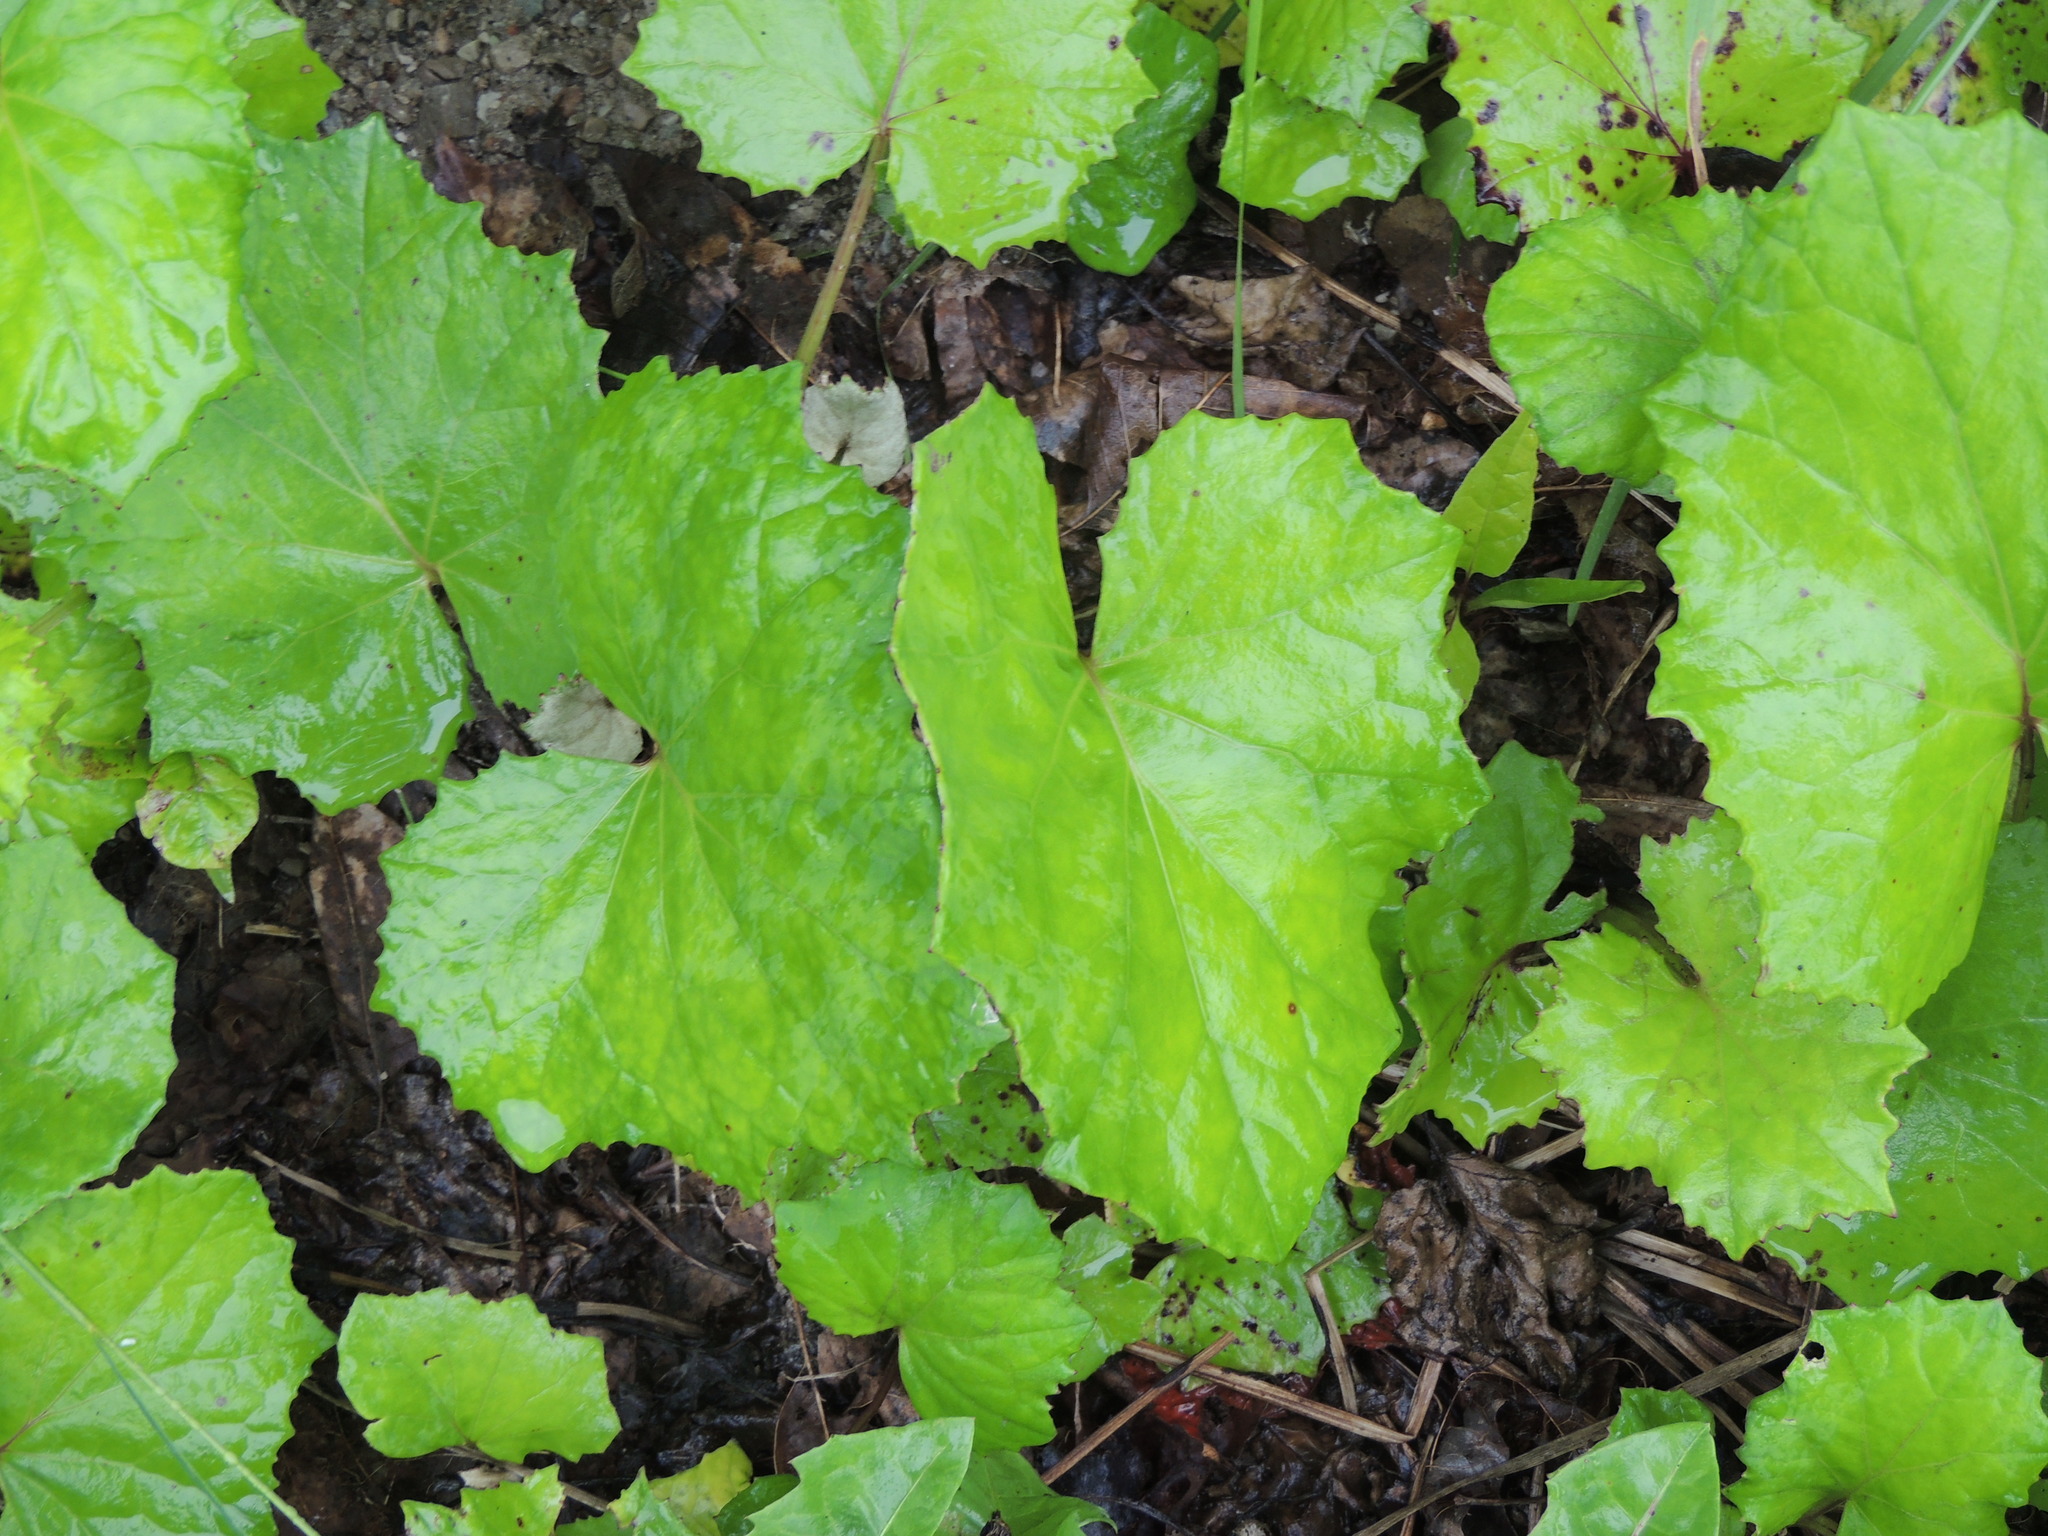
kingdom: Plantae
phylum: Tracheophyta
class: Magnoliopsida
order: Asterales
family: Asteraceae
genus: Tussilago
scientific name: Tussilago farfara
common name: Coltsfoot
